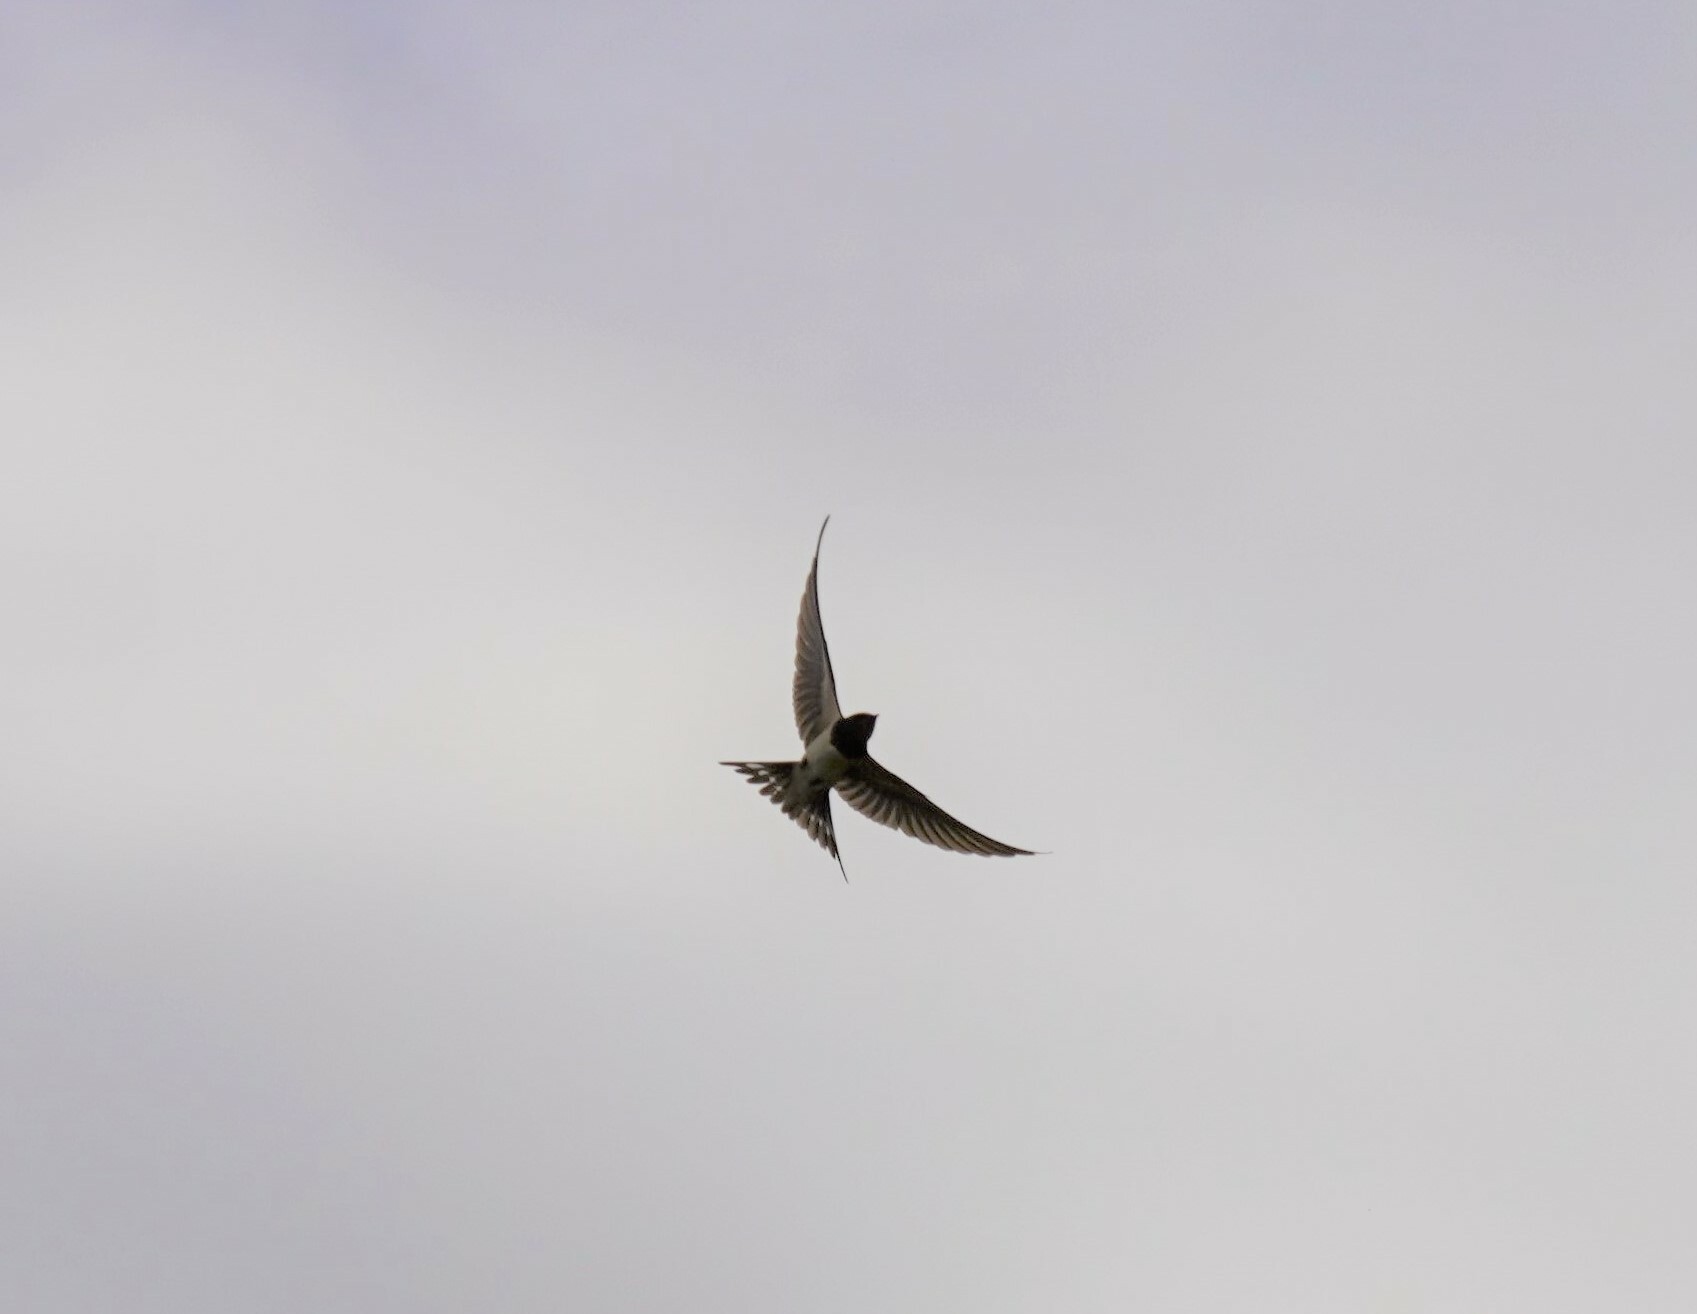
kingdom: Animalia
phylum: Chordata
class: Aves
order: Passeriformes
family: Hirundinidae
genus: Hirundo
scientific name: Hirundo rustica
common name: Barn swallow
